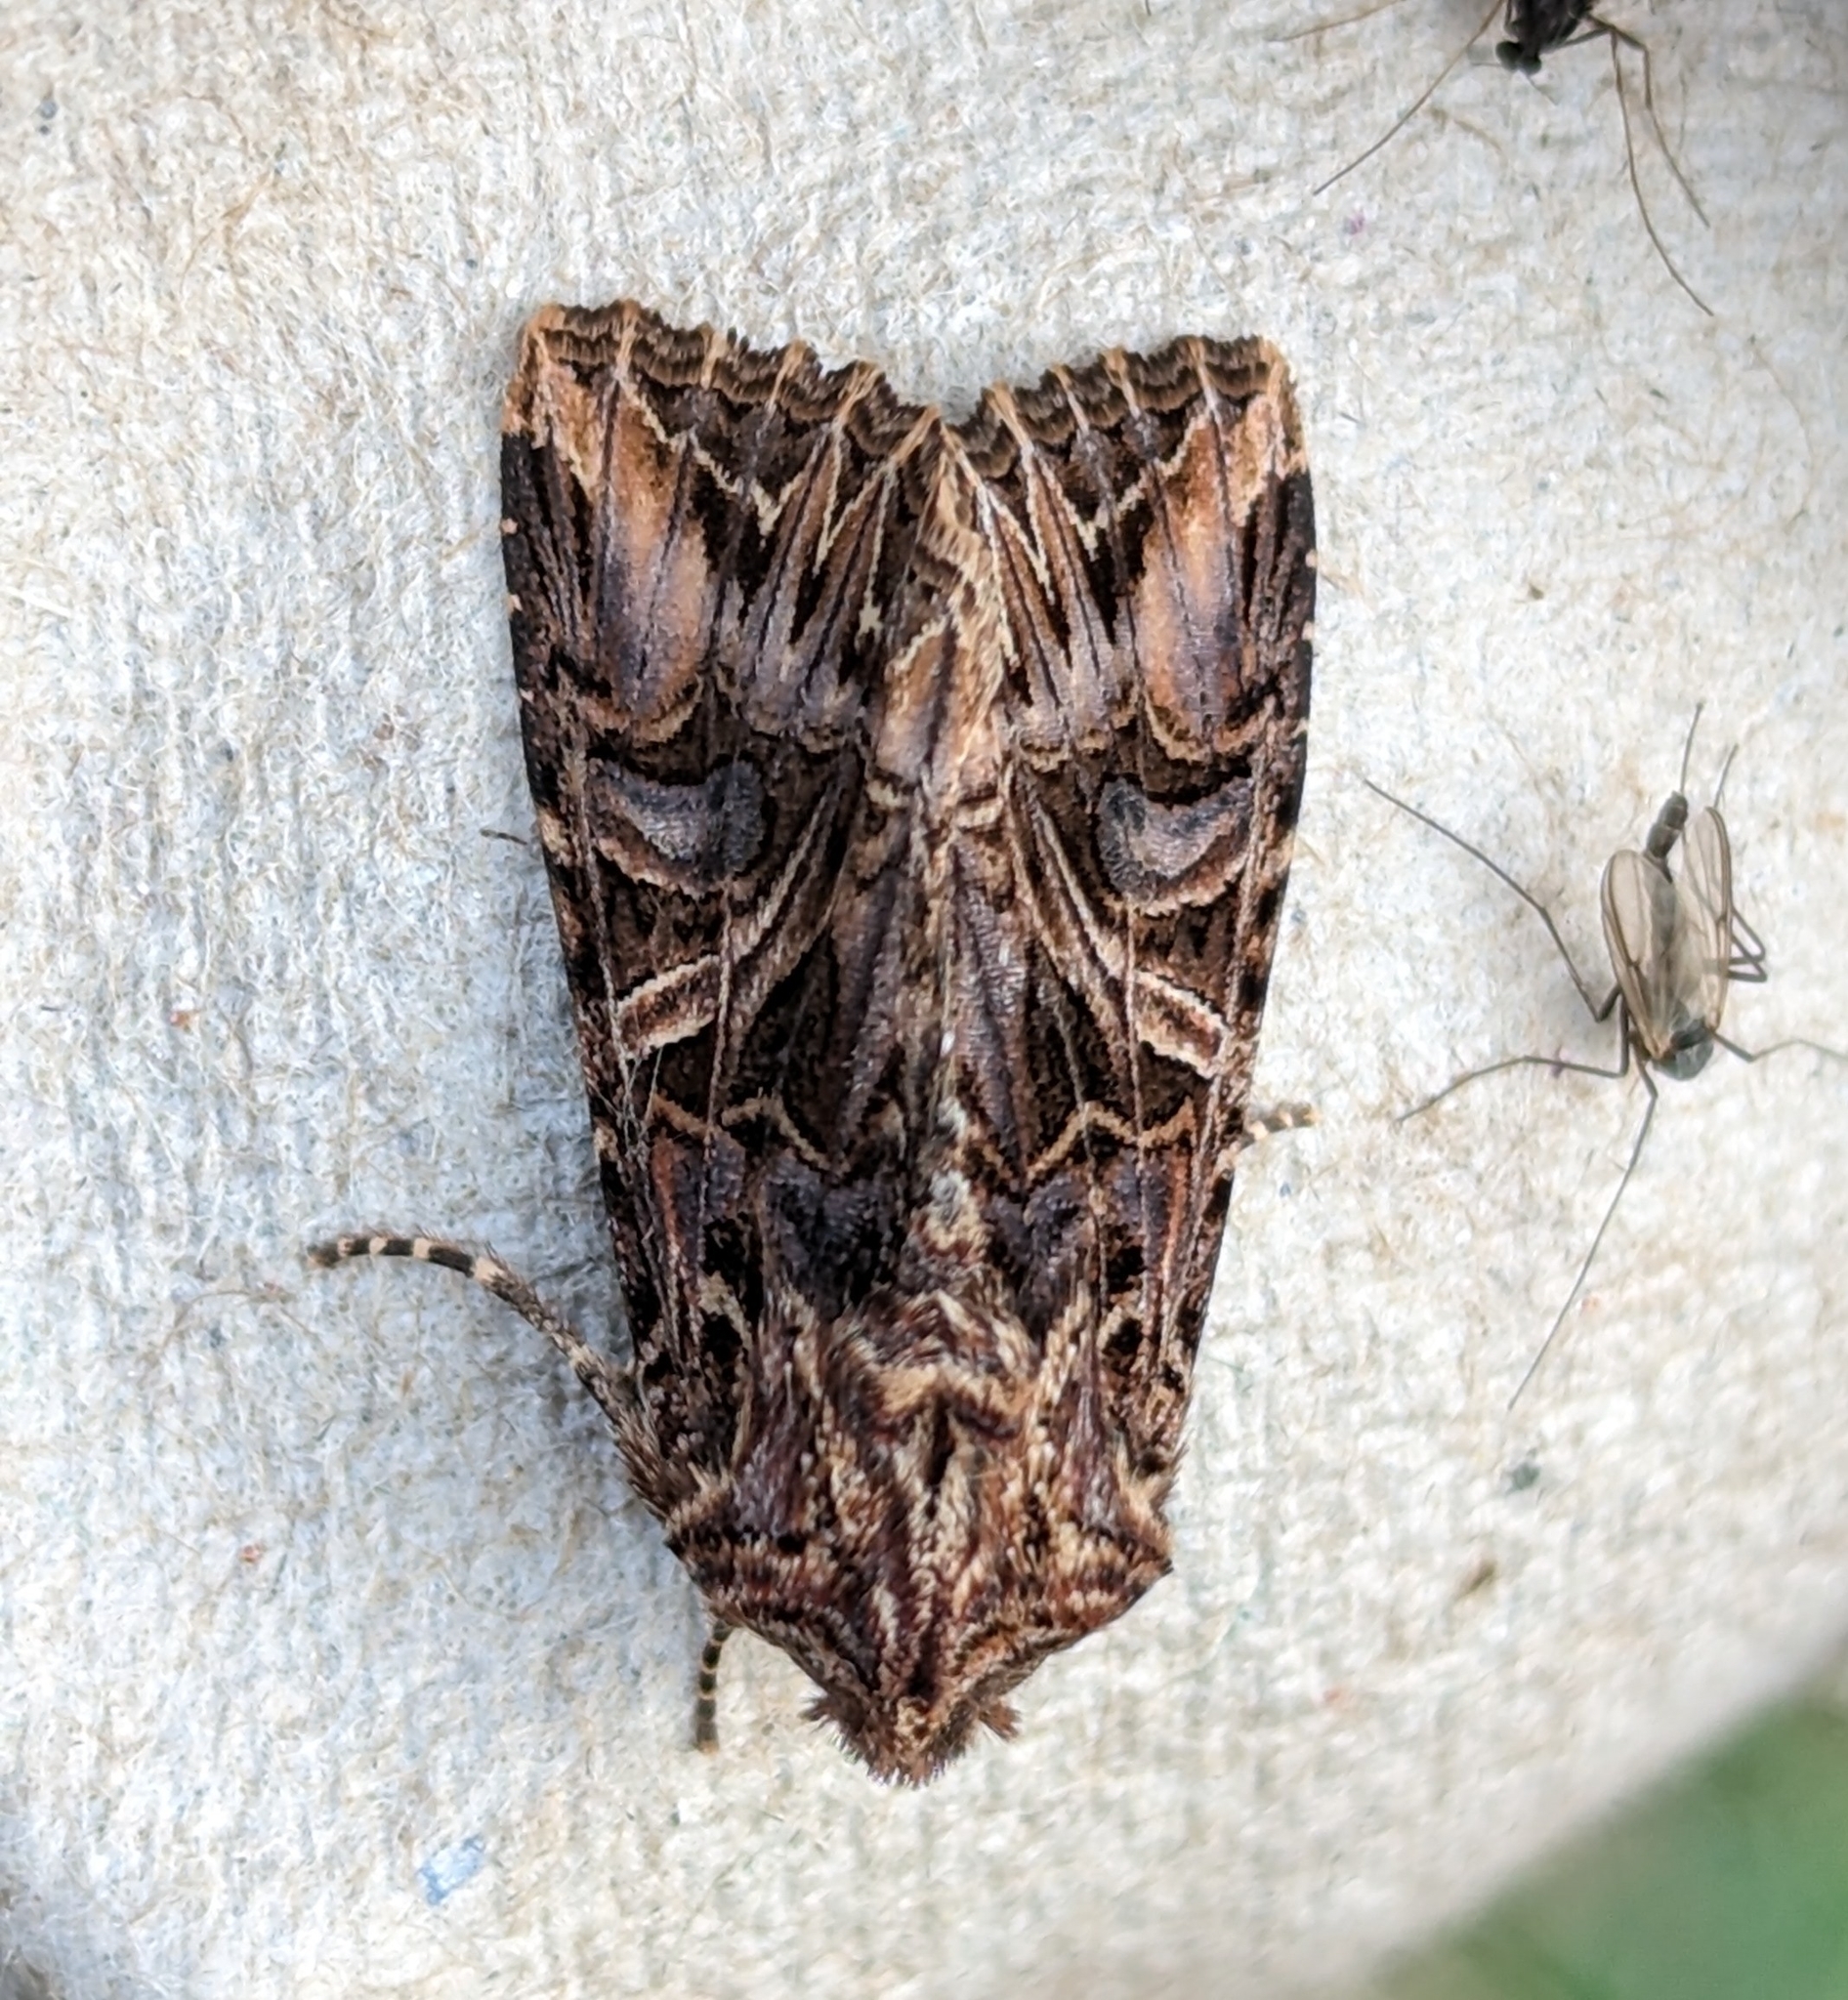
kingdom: Animalia
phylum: Arthropoda
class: Insecta
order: Lepidoptera
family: Noctuidae
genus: Anarta
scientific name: Anarta farnhami
